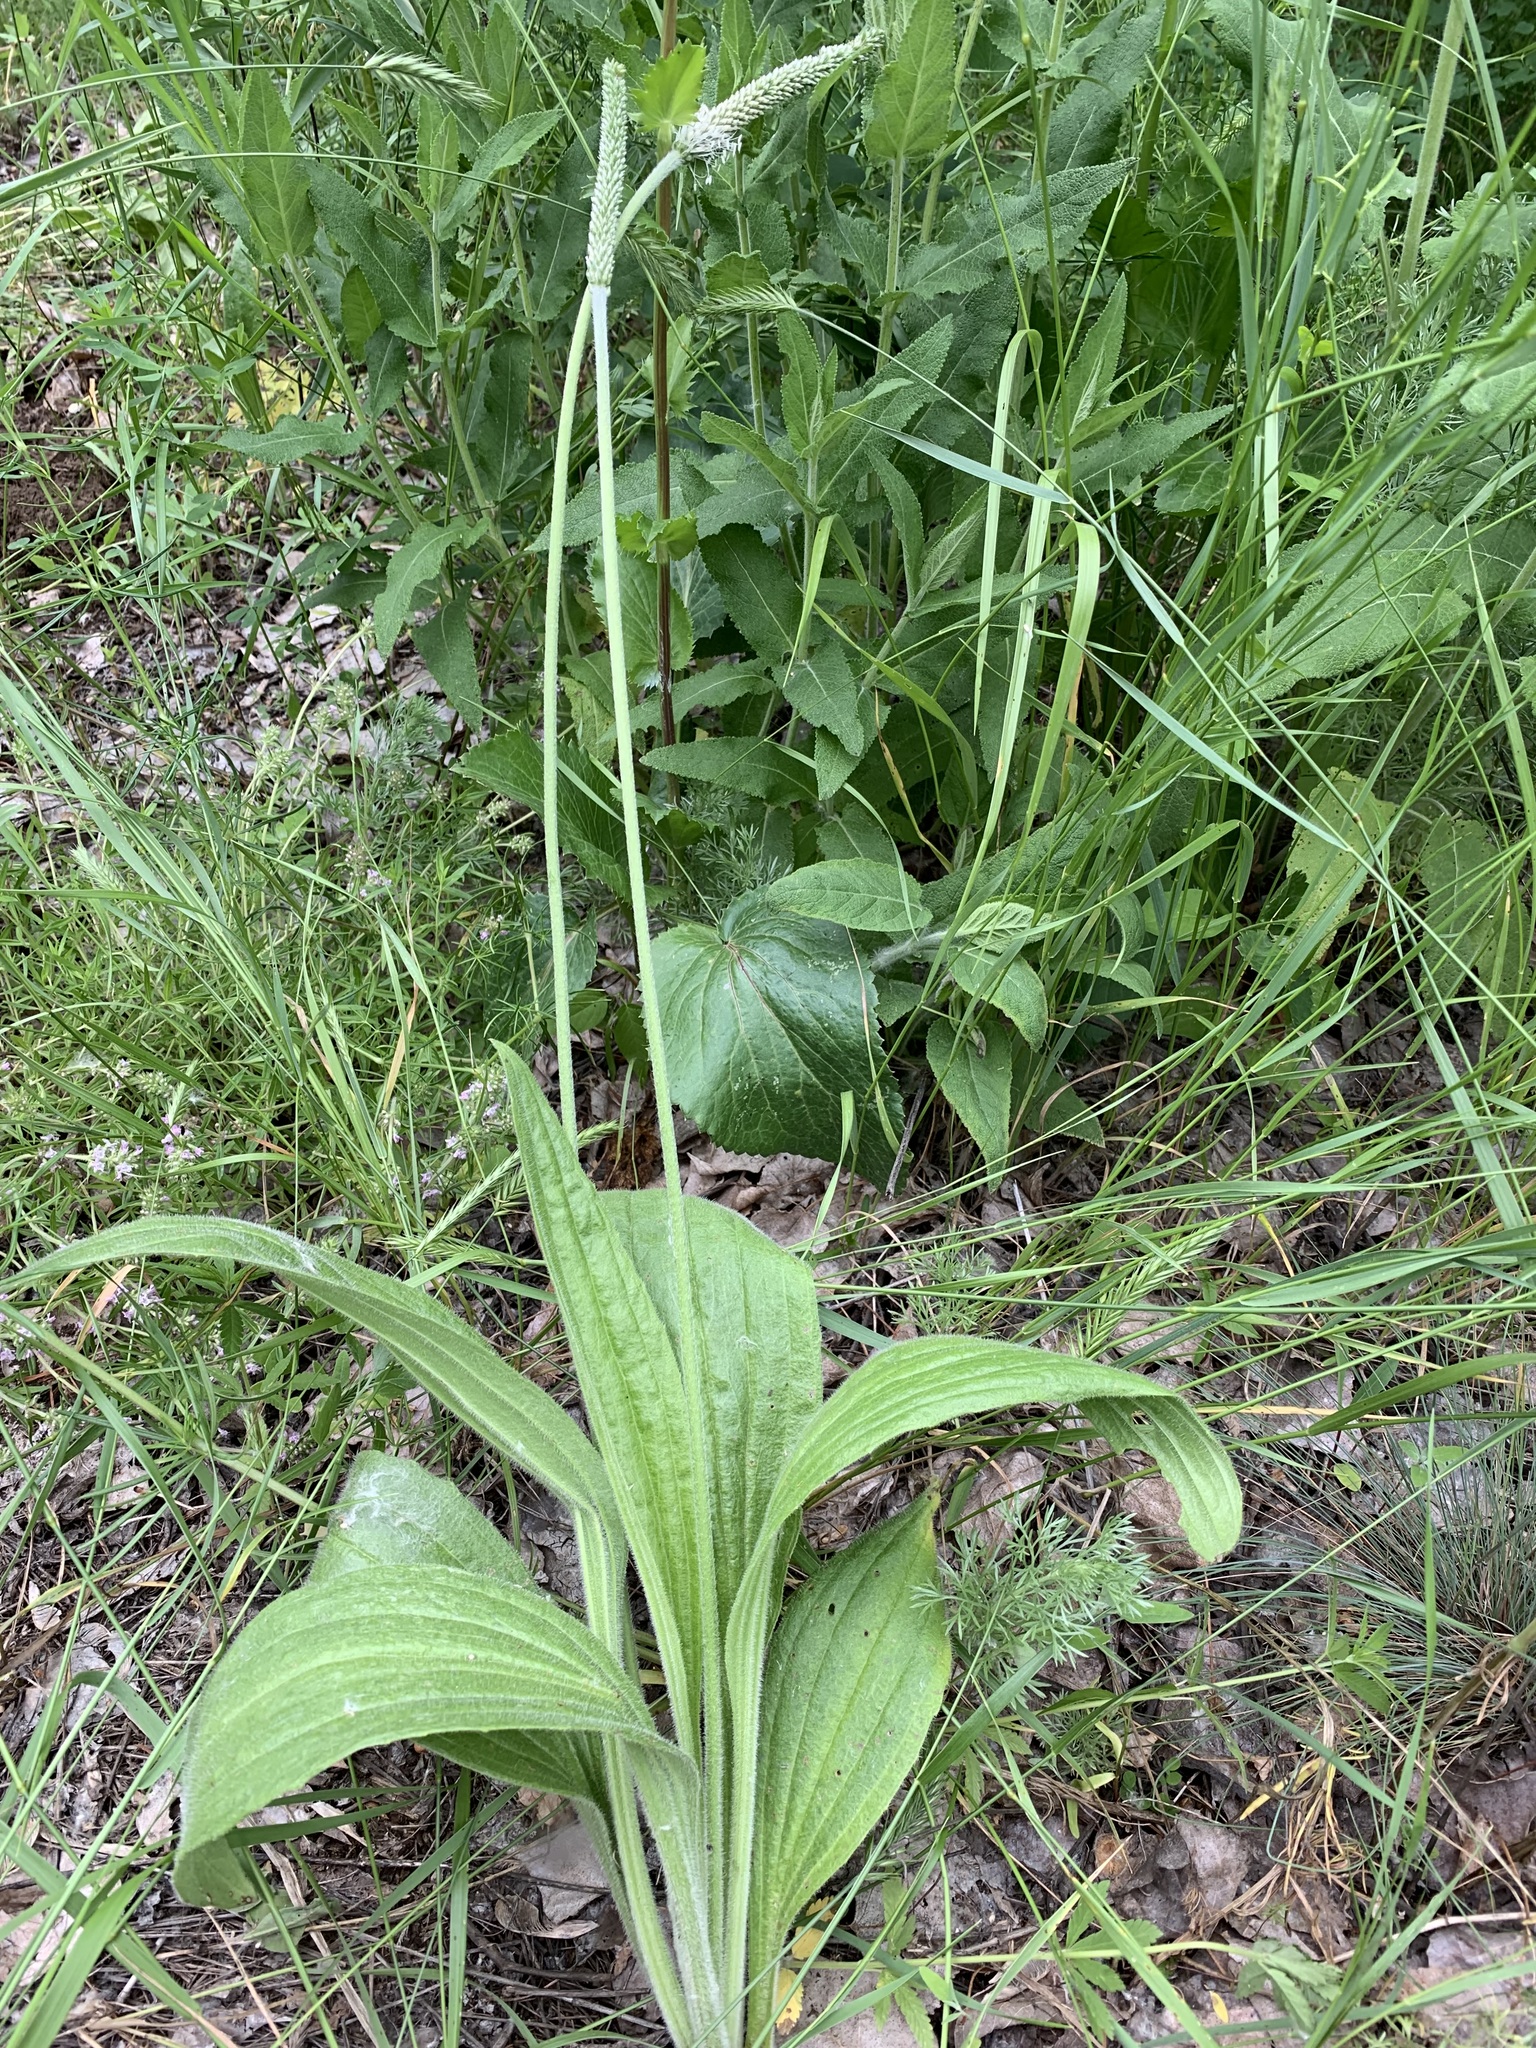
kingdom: Plantae
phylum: Tracheophyta
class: Magnoliopsida
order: Lamiales
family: Plantaginaceae
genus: Plantago
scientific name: Plantago urvillei
